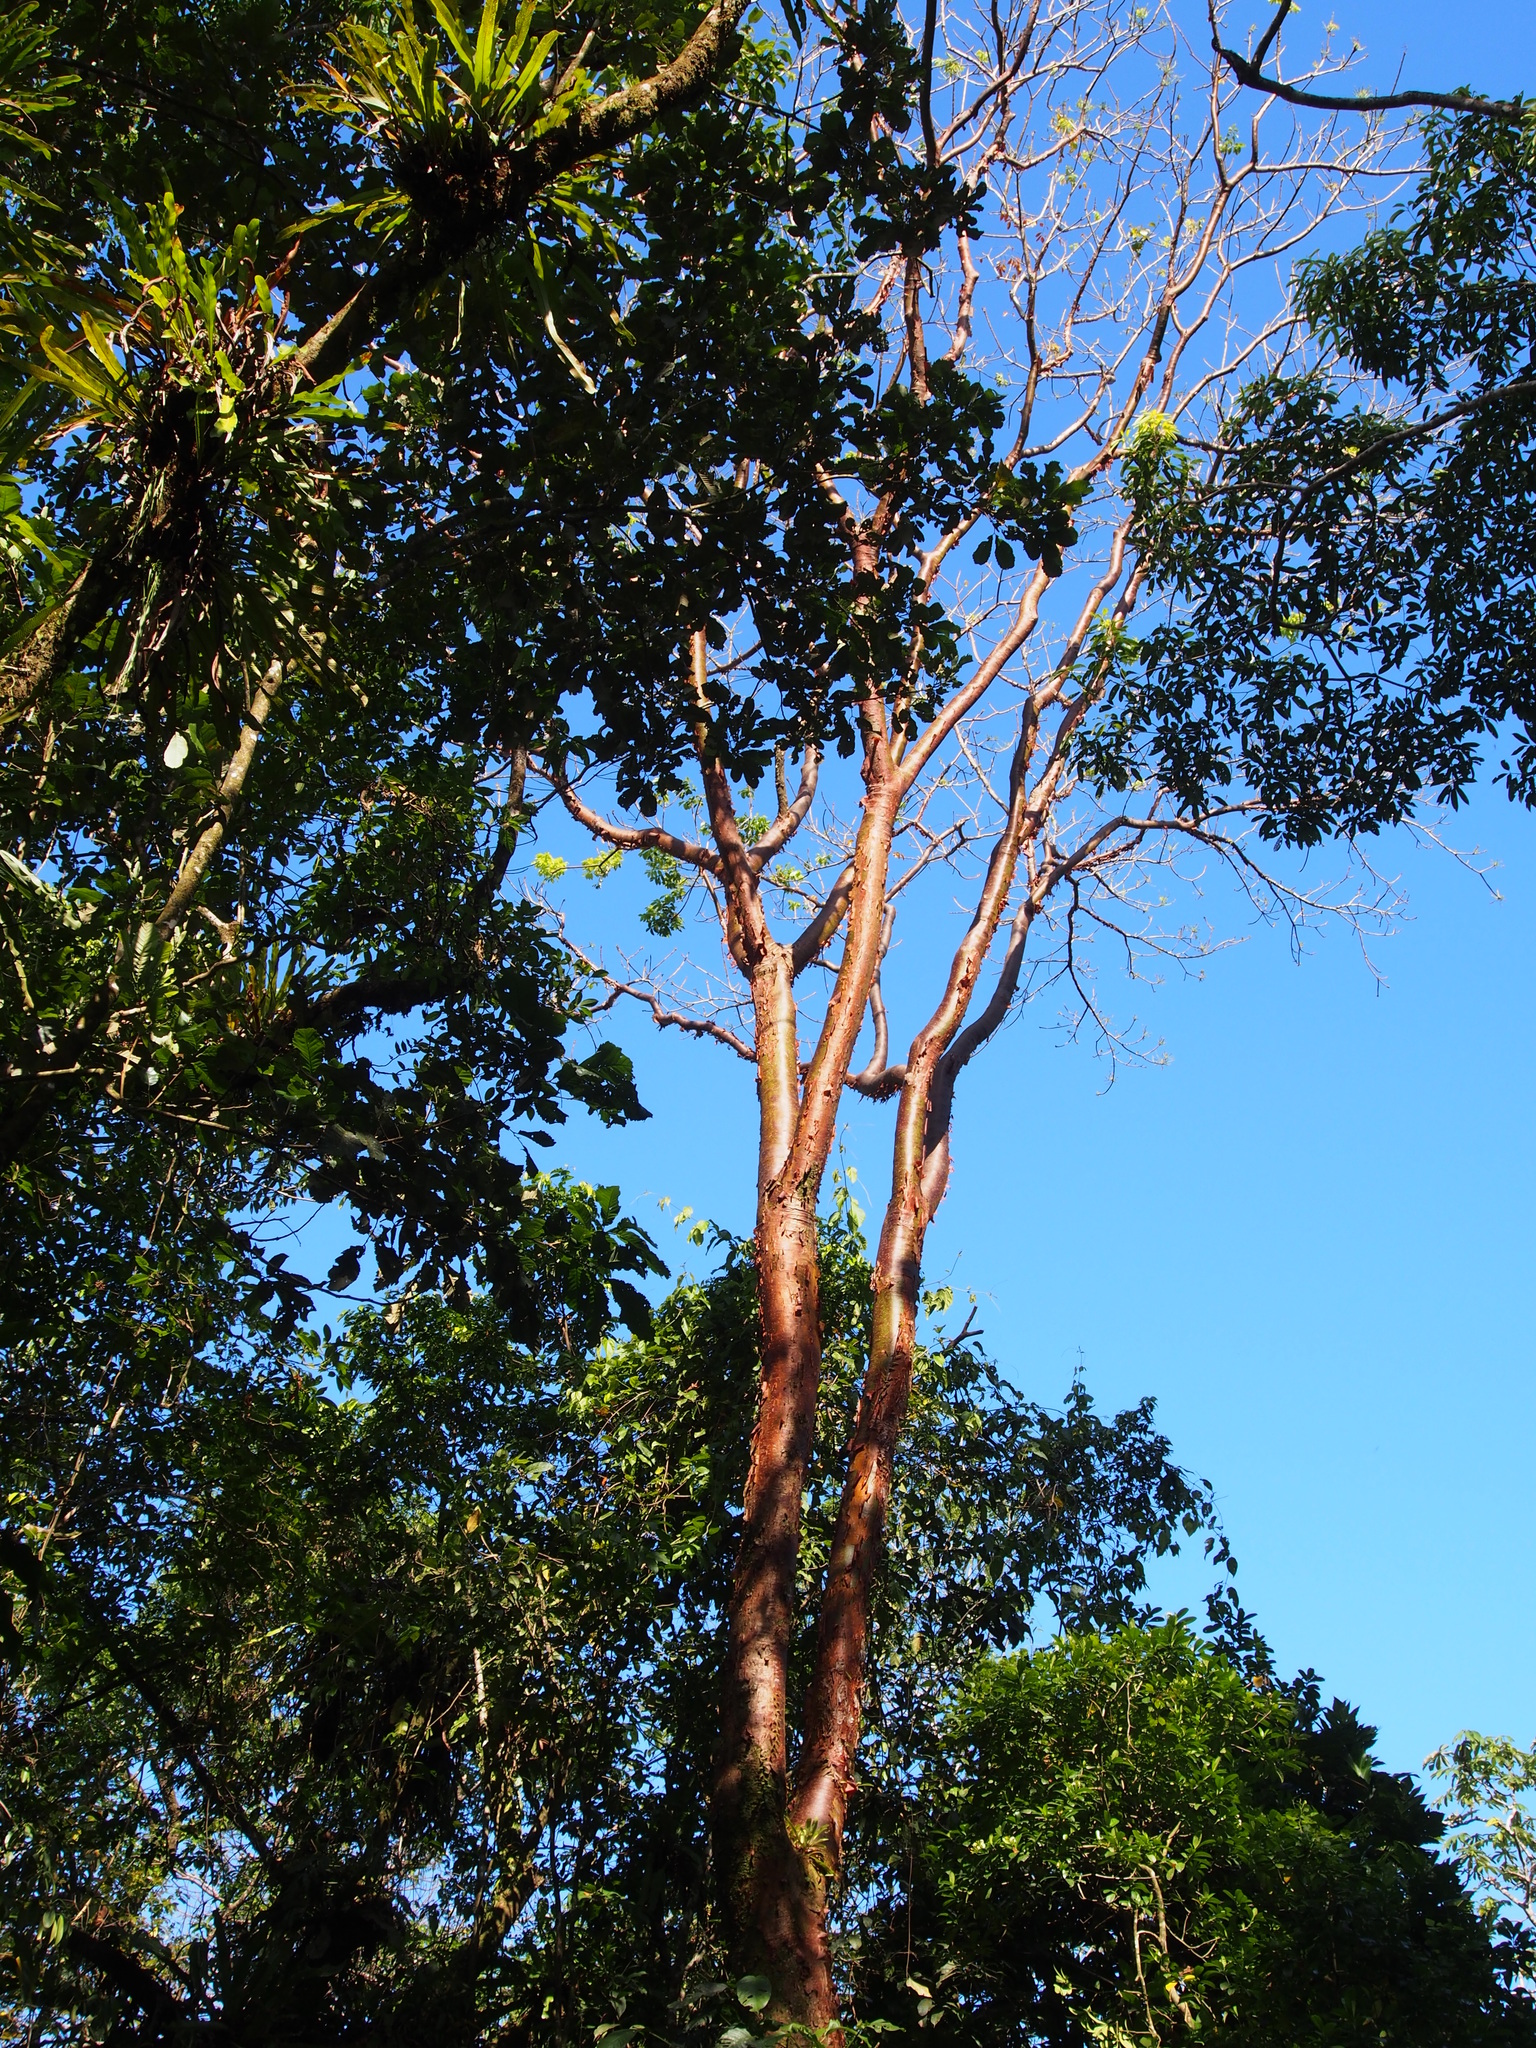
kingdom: Plantae
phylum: Tracheophyta
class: Magnoliopsida
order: Sapindales
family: Burseraceae
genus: Bursera
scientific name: Bursera simaruba
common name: Turpentine tree
